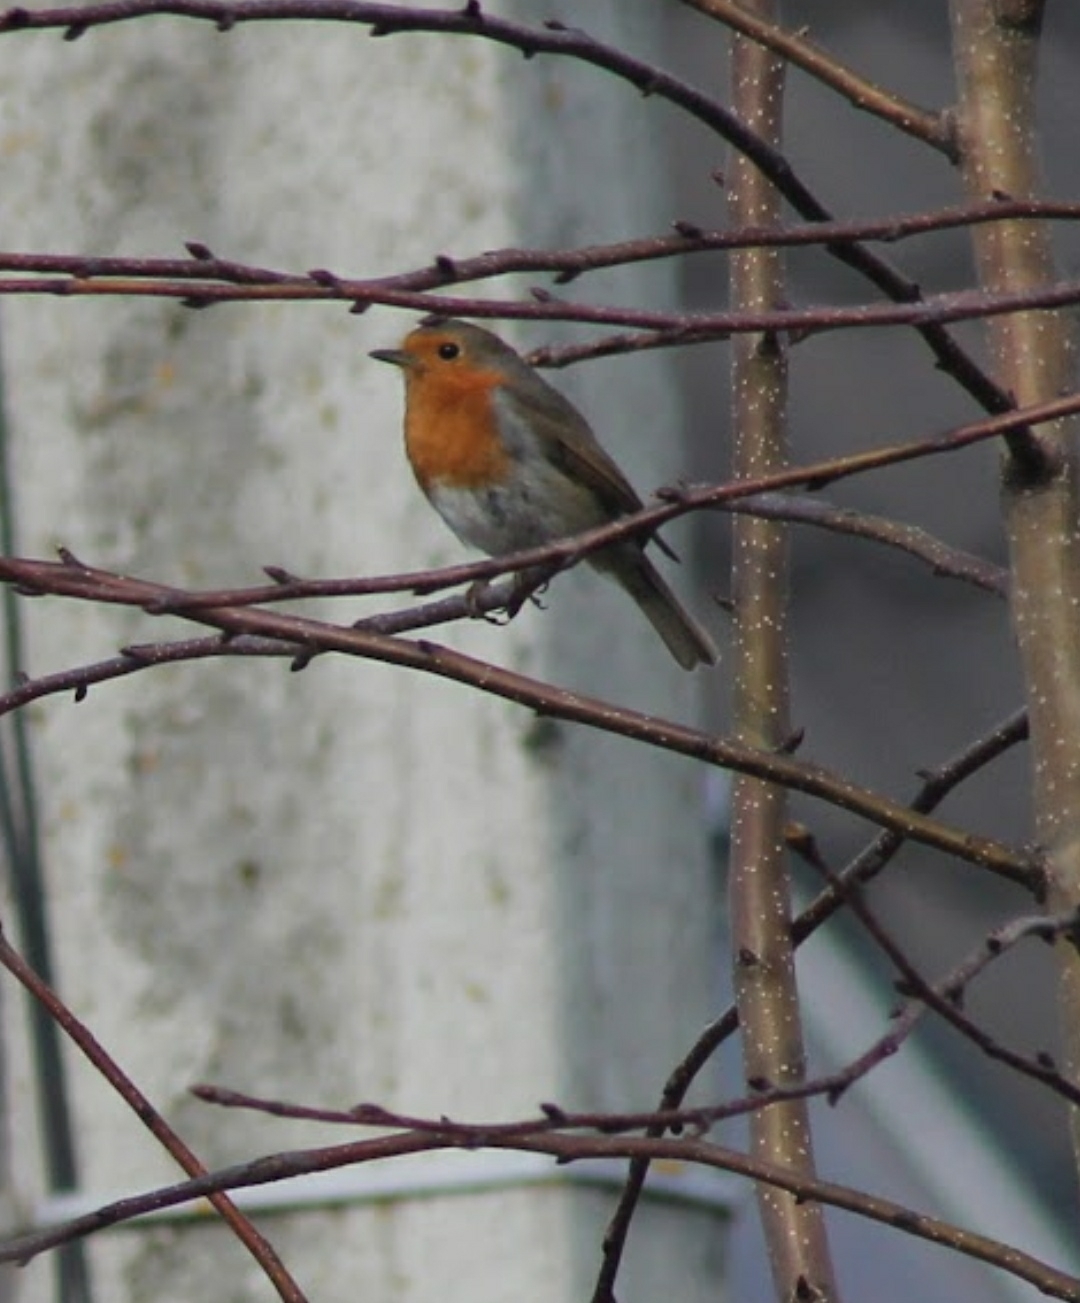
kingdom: Animalia
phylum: Chordata
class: Aves
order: Passeriformes
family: Muscicapidae
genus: Erithacus
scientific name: Erithacus rubecula
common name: European robin
